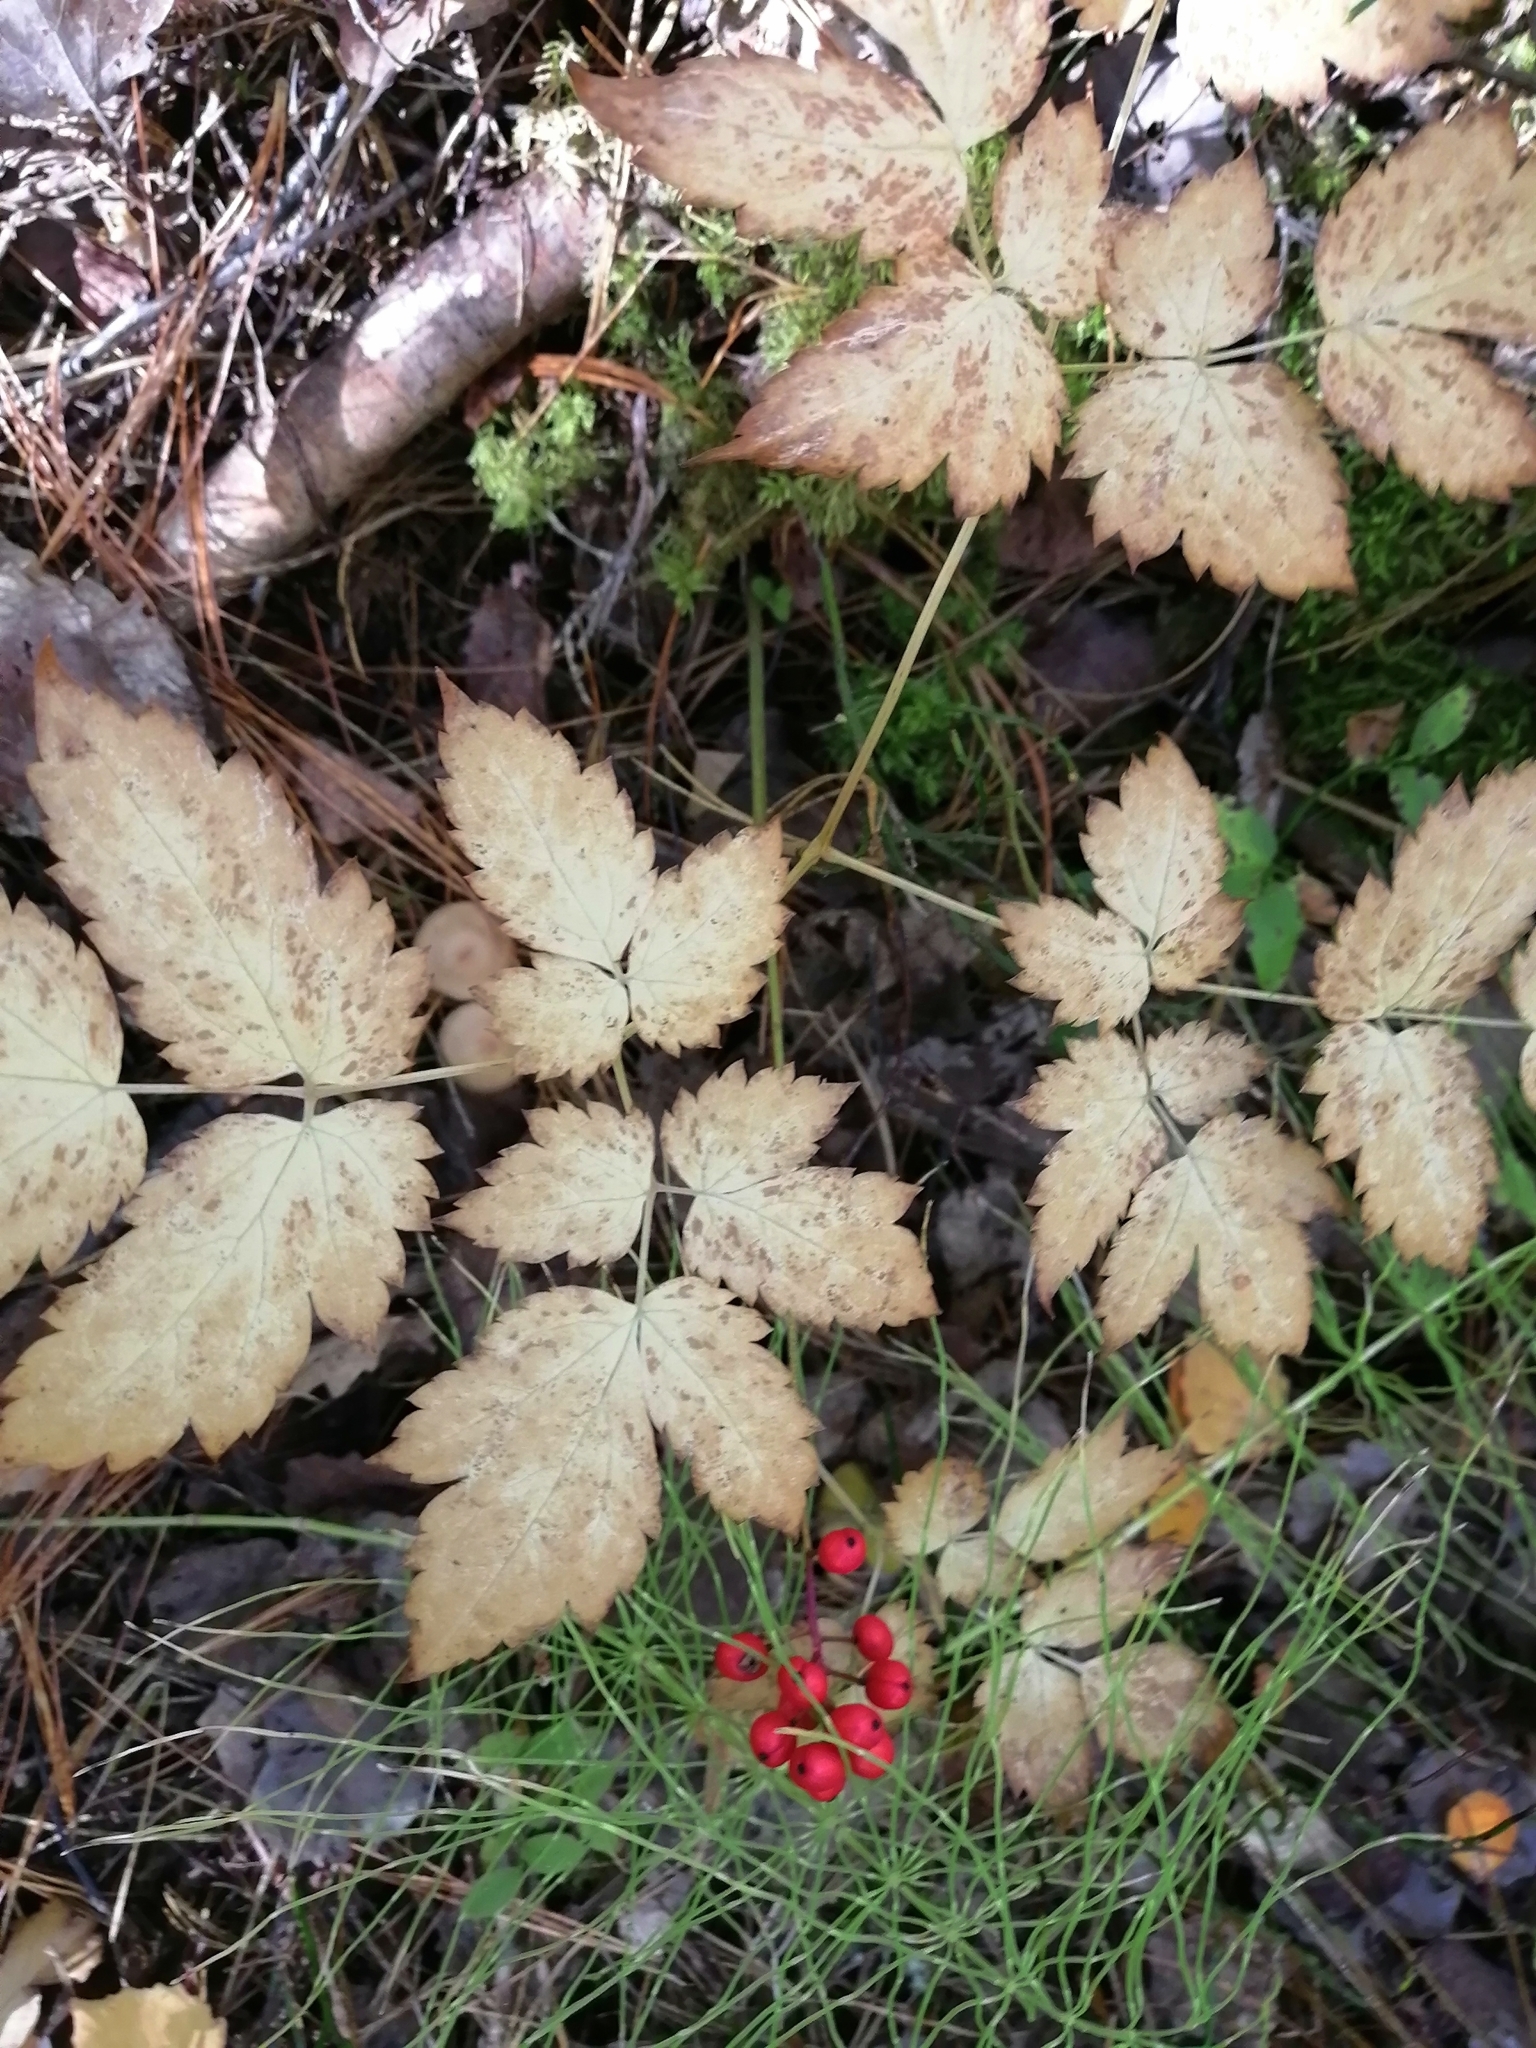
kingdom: Plantae
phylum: Tracheophyta
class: Magnoliopsida
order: Ranunculales
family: Ranunculaceae
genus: Actaea
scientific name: Actaea erythrocarpa
